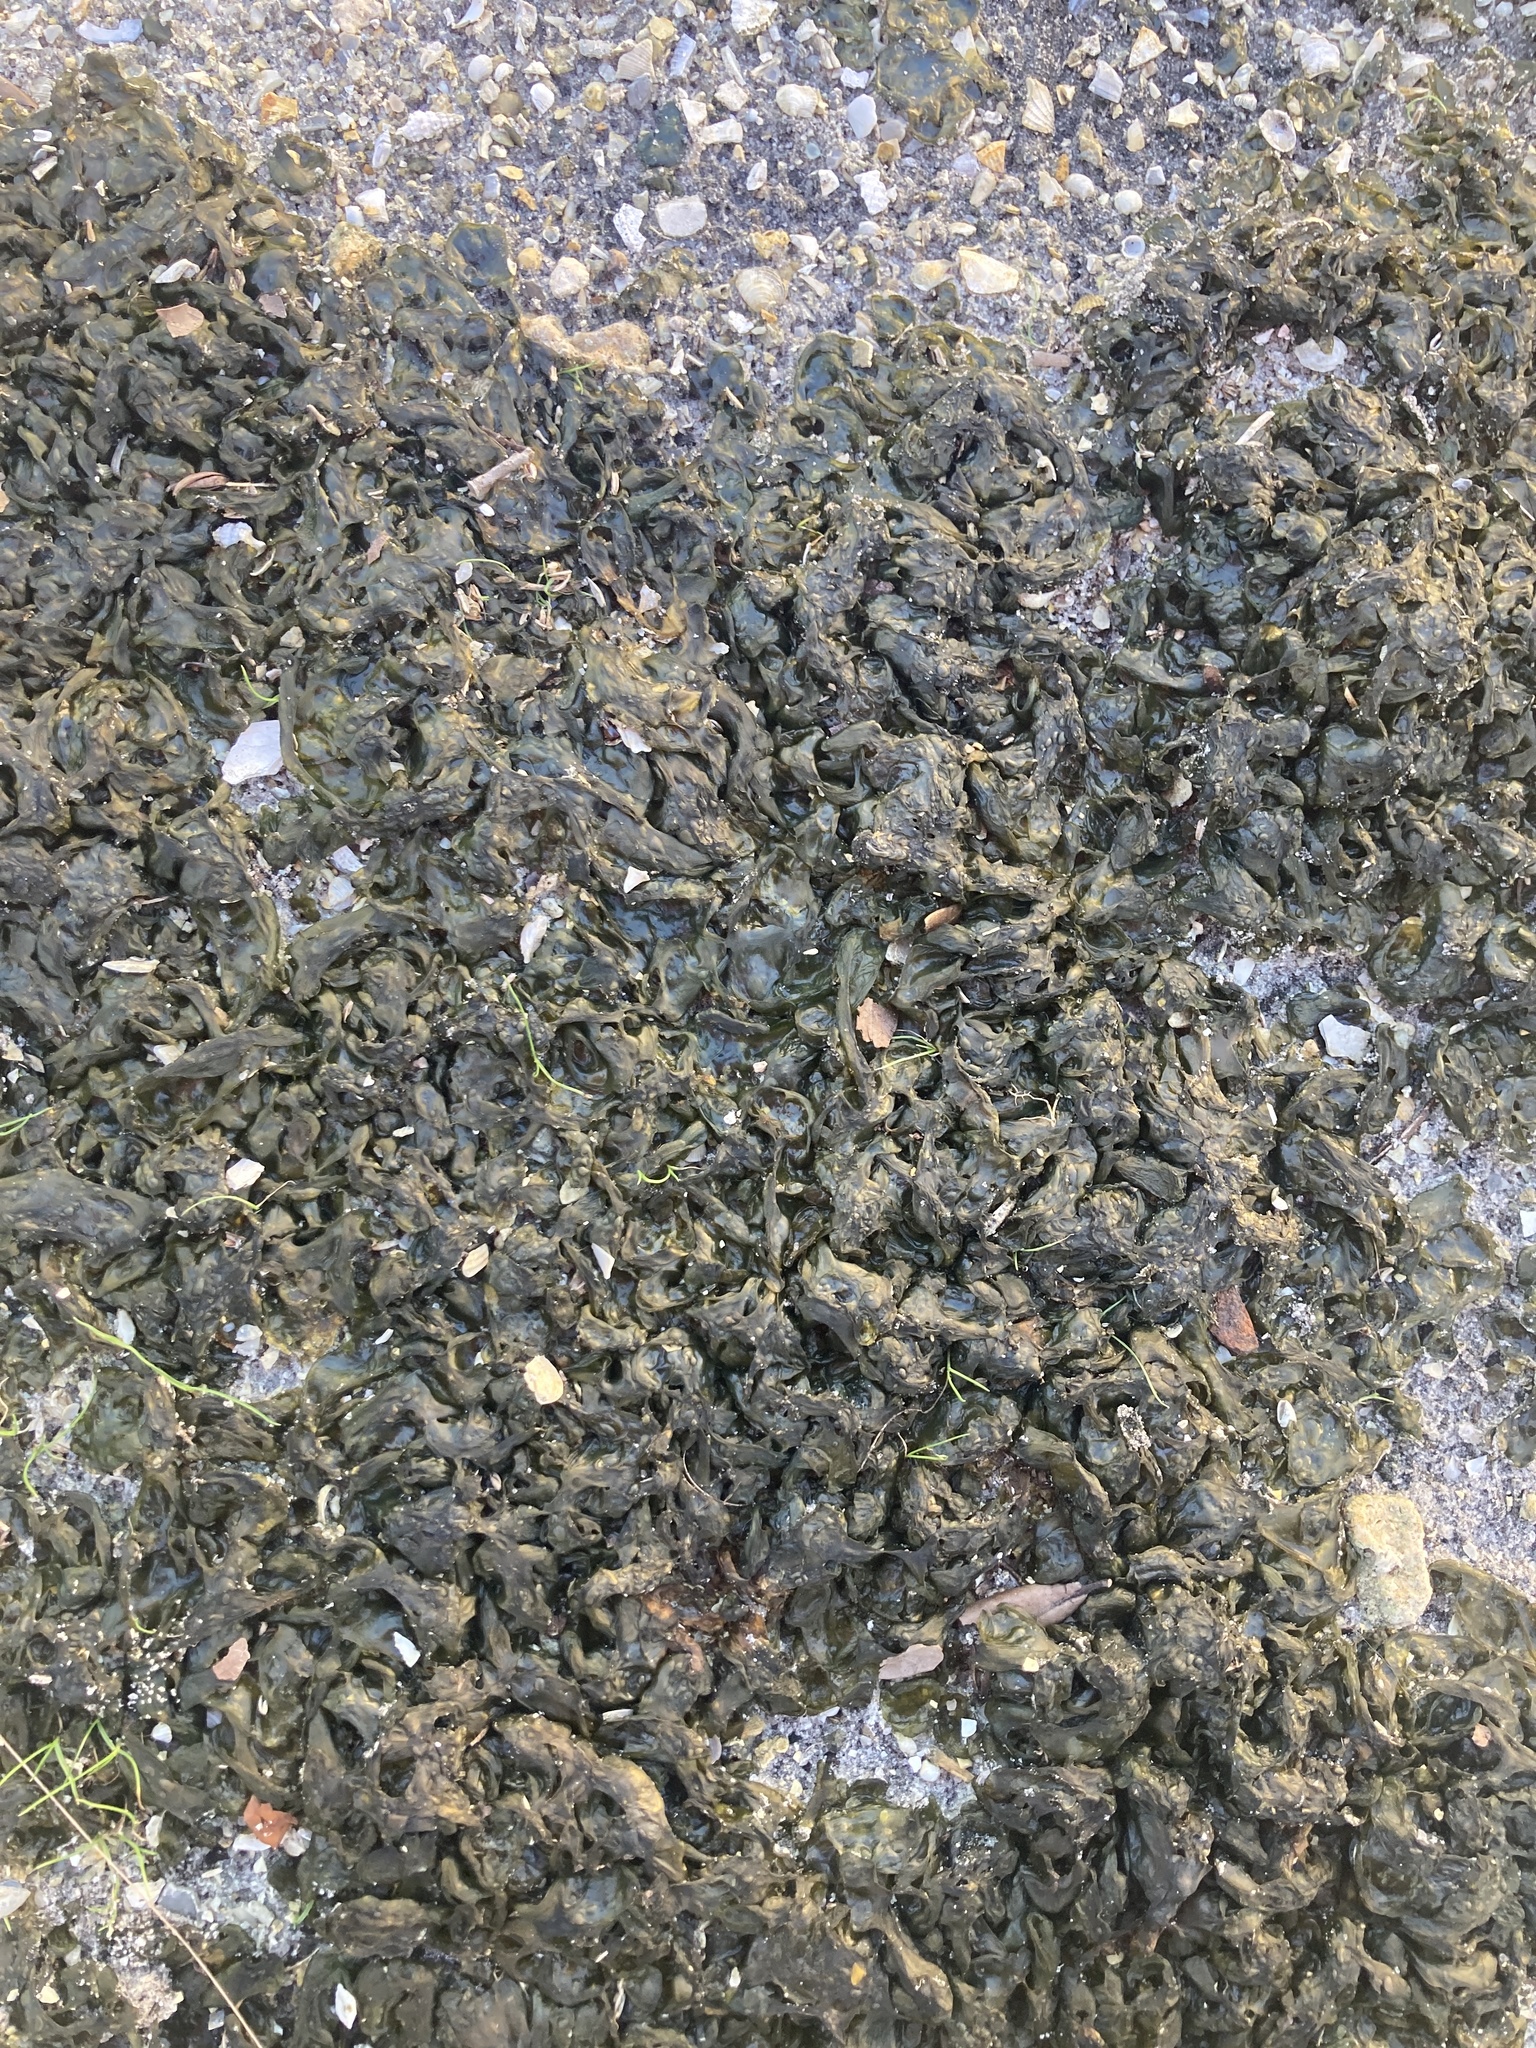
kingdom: Bacteria
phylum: Cyanobacteria
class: Cyanobacteriia
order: Cyanobacteriales
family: Nostocaceae
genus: Nostoc
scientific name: Nostoc commune
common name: Star jelly
